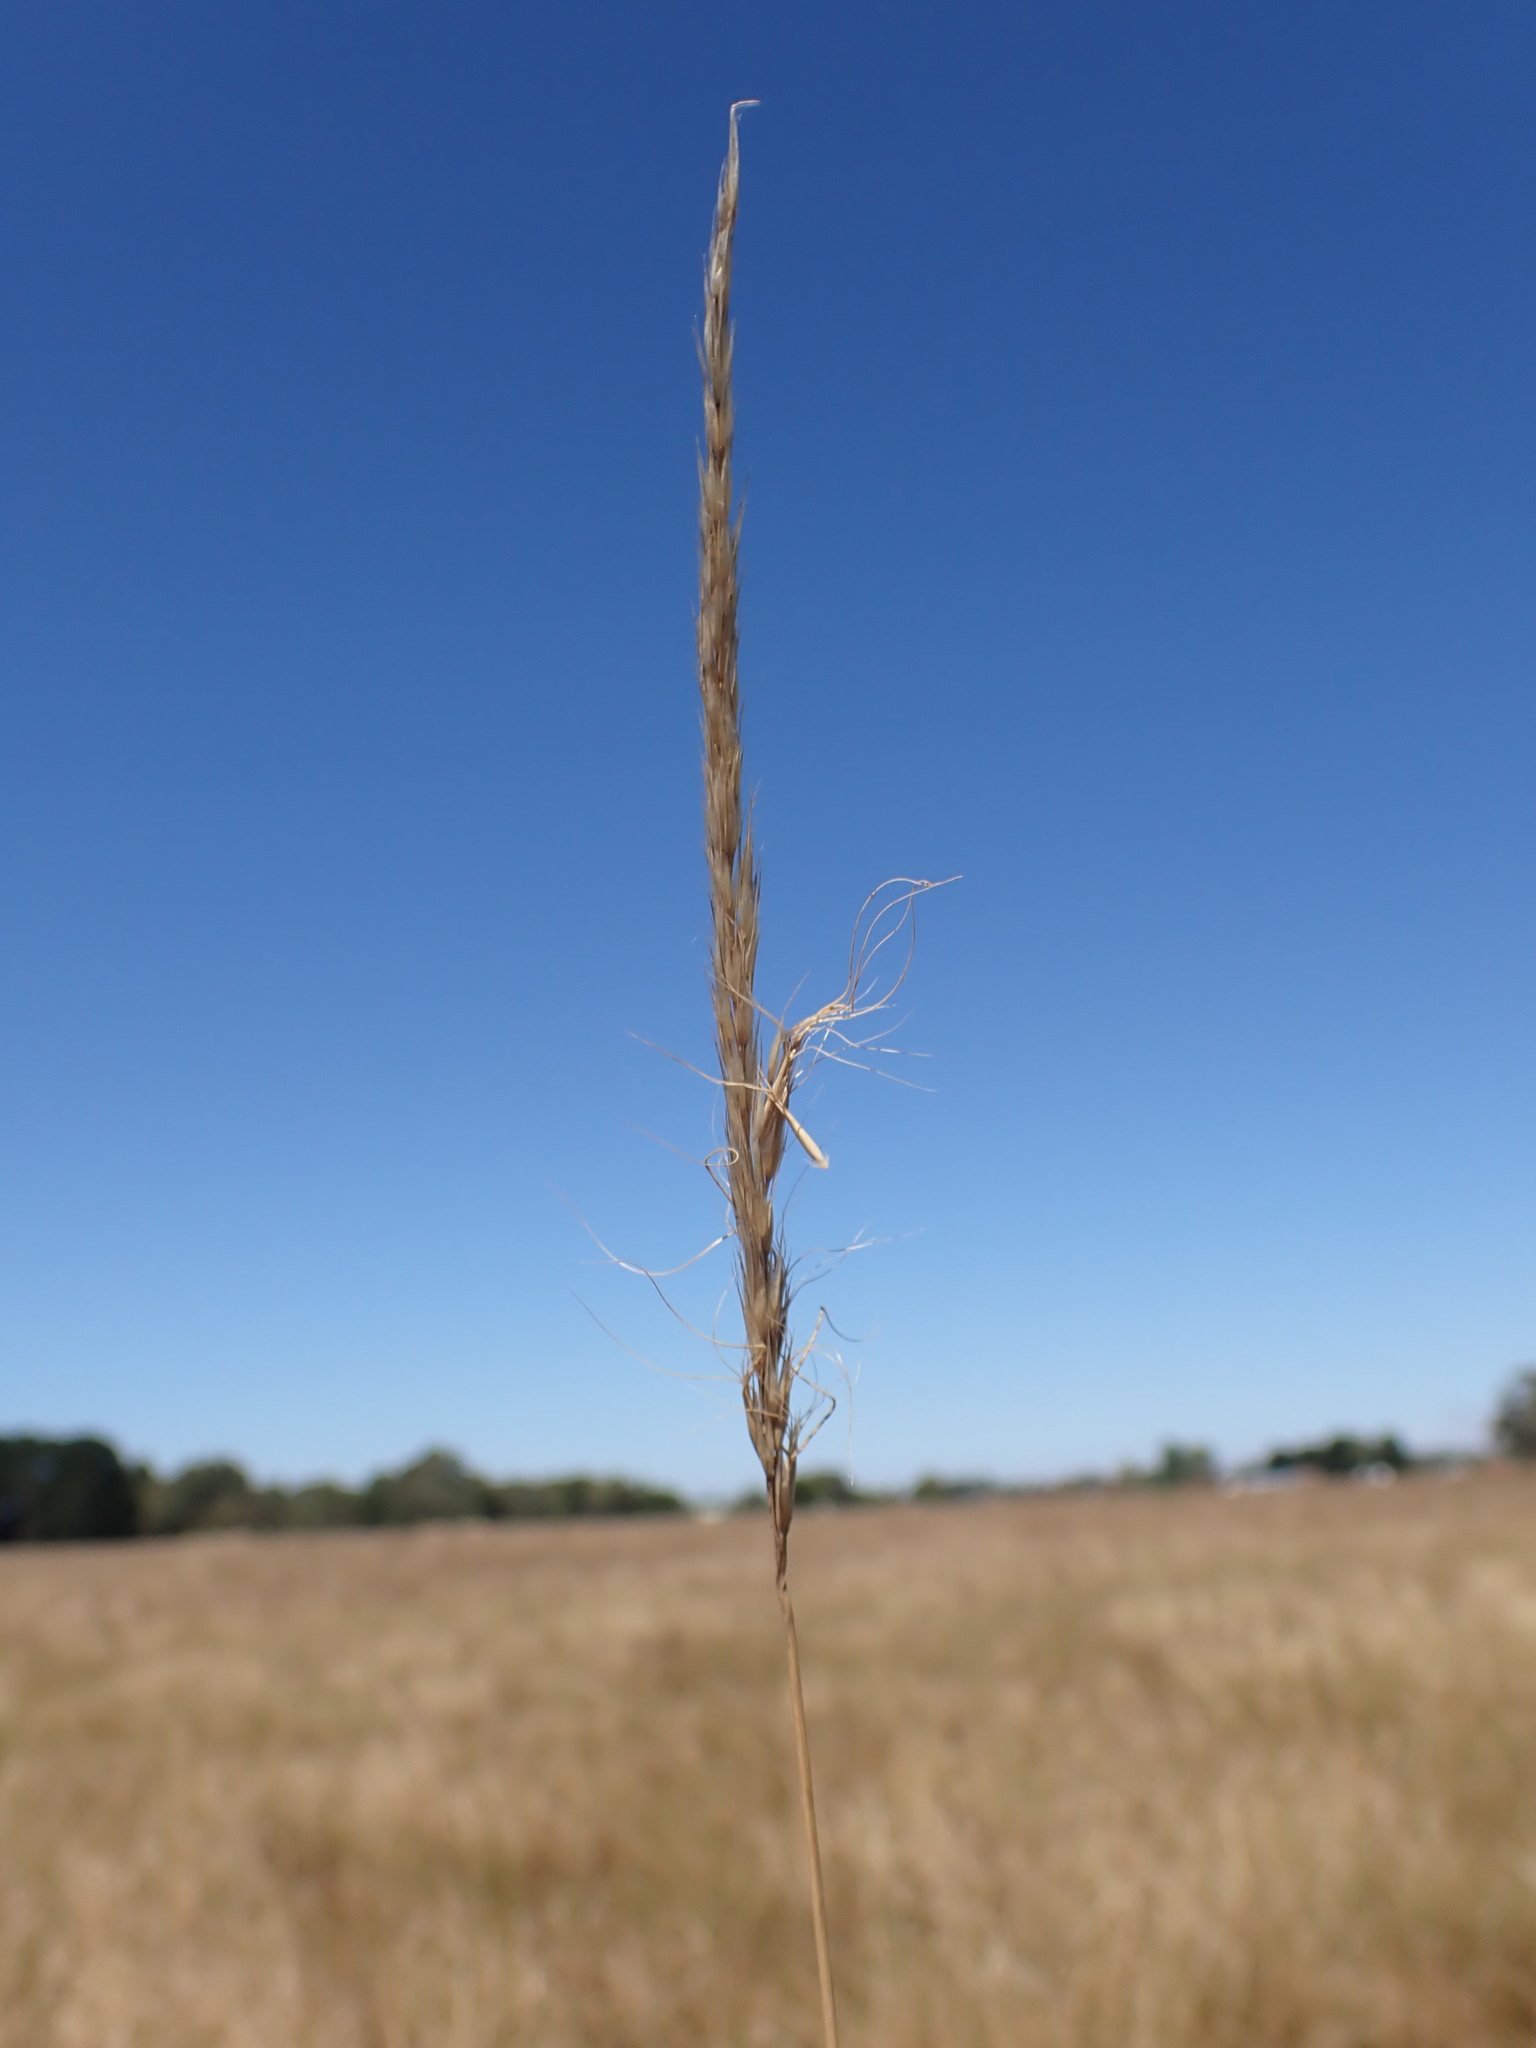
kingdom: Plantae
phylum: Tracheophyta
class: Liliopsida
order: Poales
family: Poaceae
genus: Pentapogon
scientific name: Pentapogon quadrifidus
